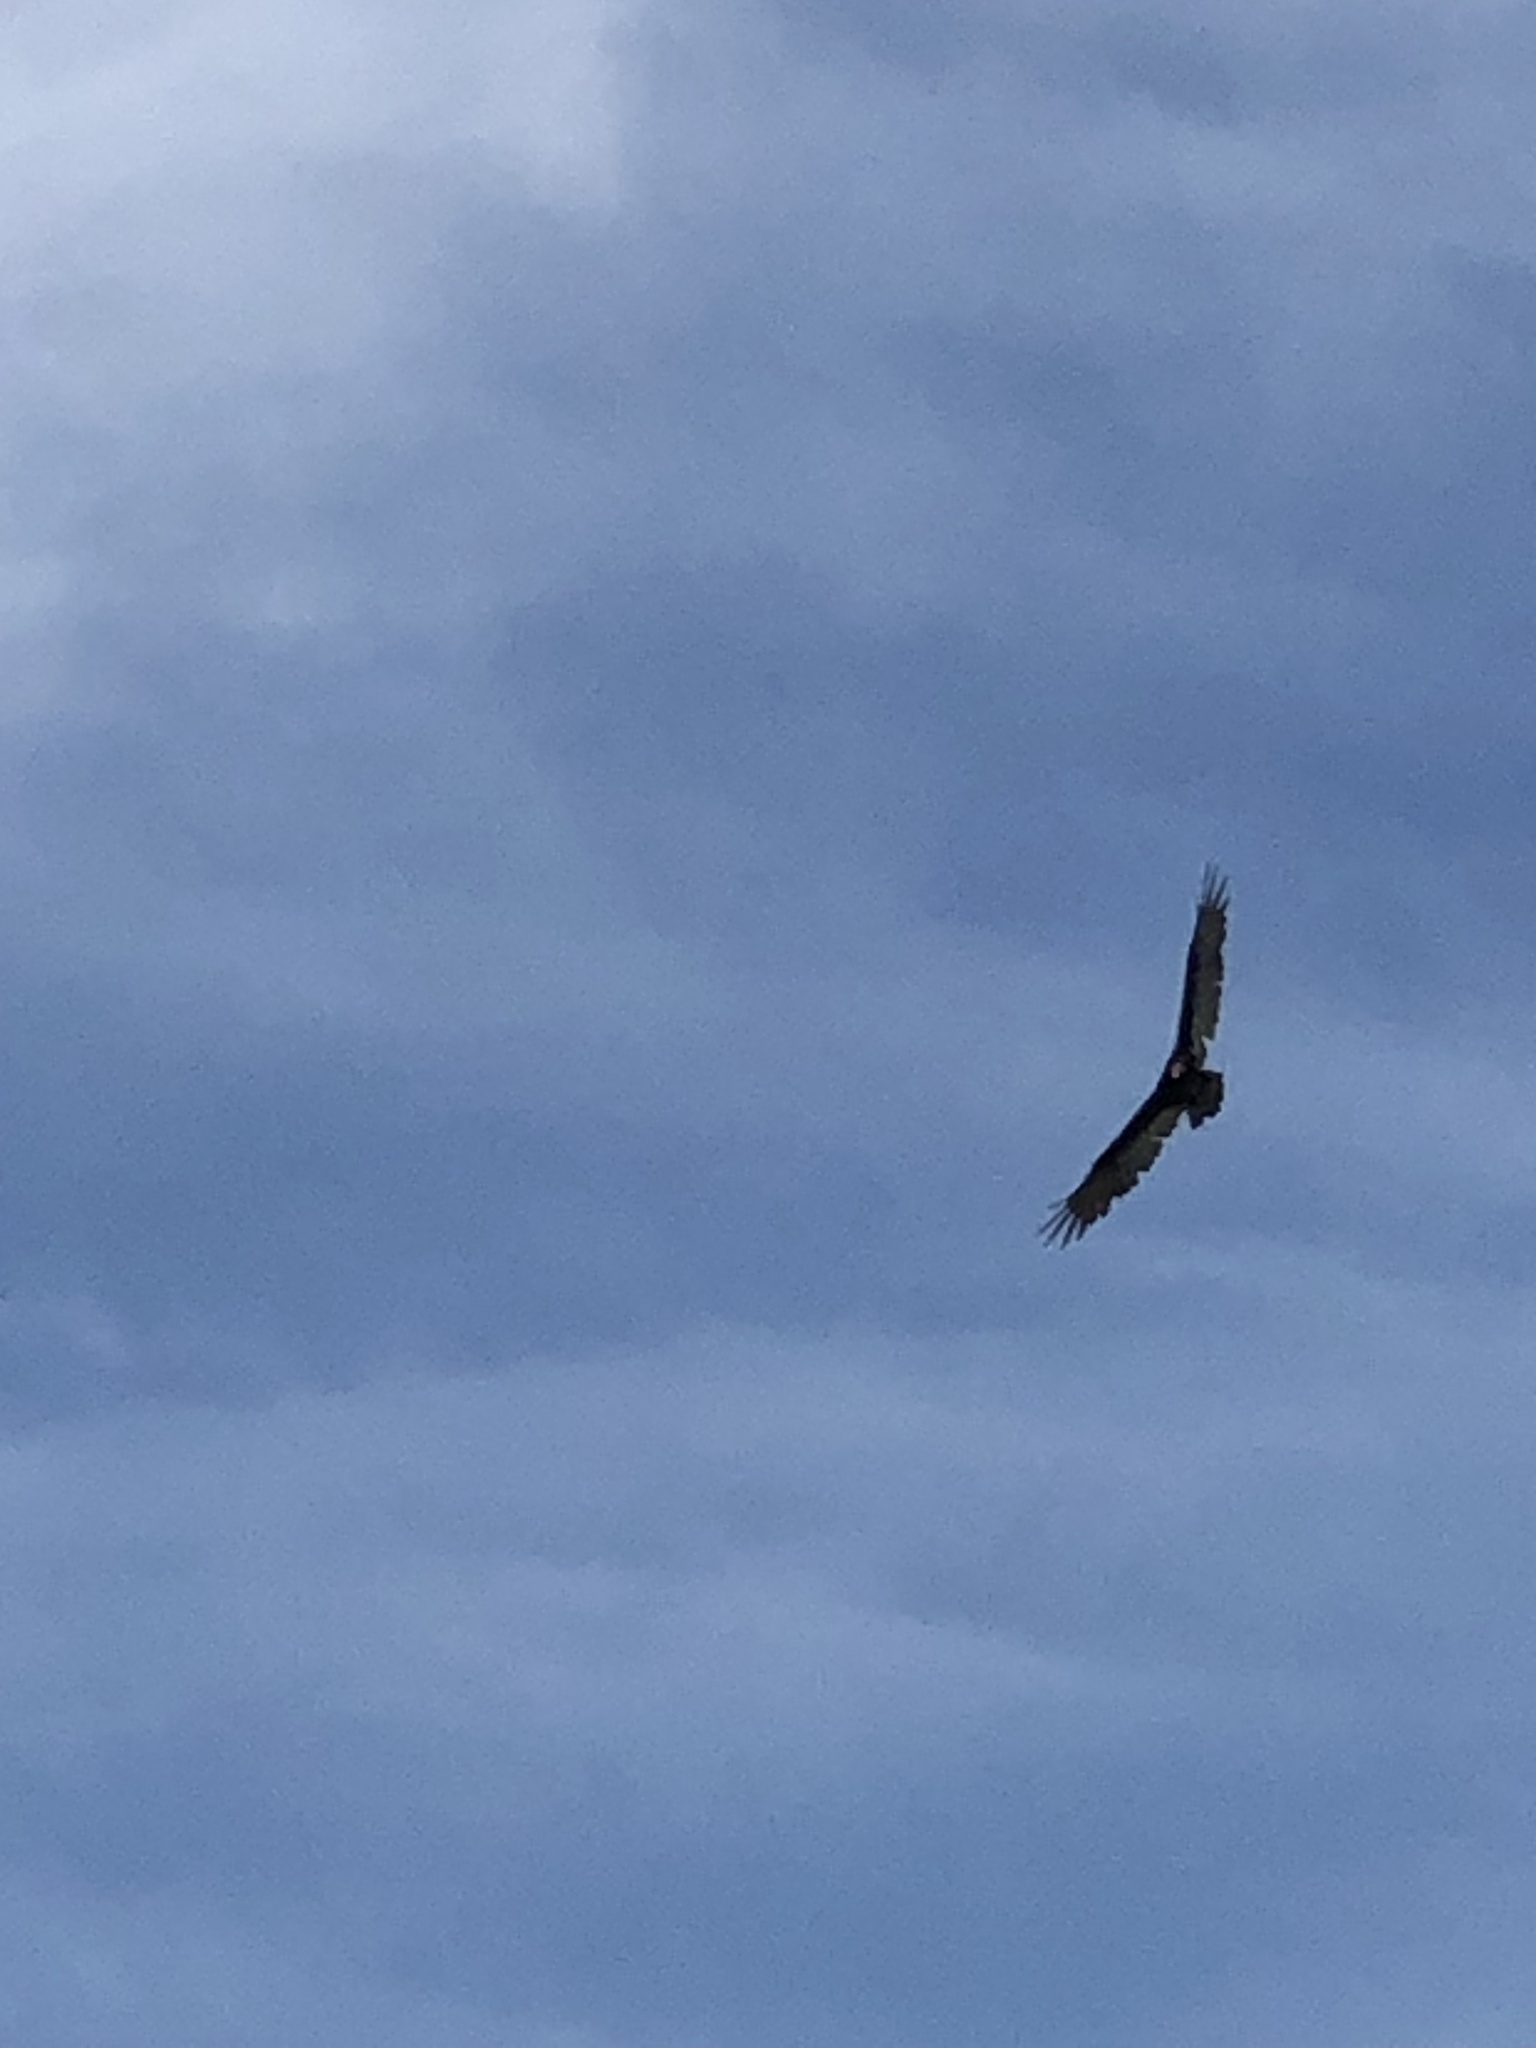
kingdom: Animalia
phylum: Chordata
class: Aves
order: Accipitriformes
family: Cathartidae
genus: Cathartes
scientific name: Cathartes aura
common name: Turkey vulture
